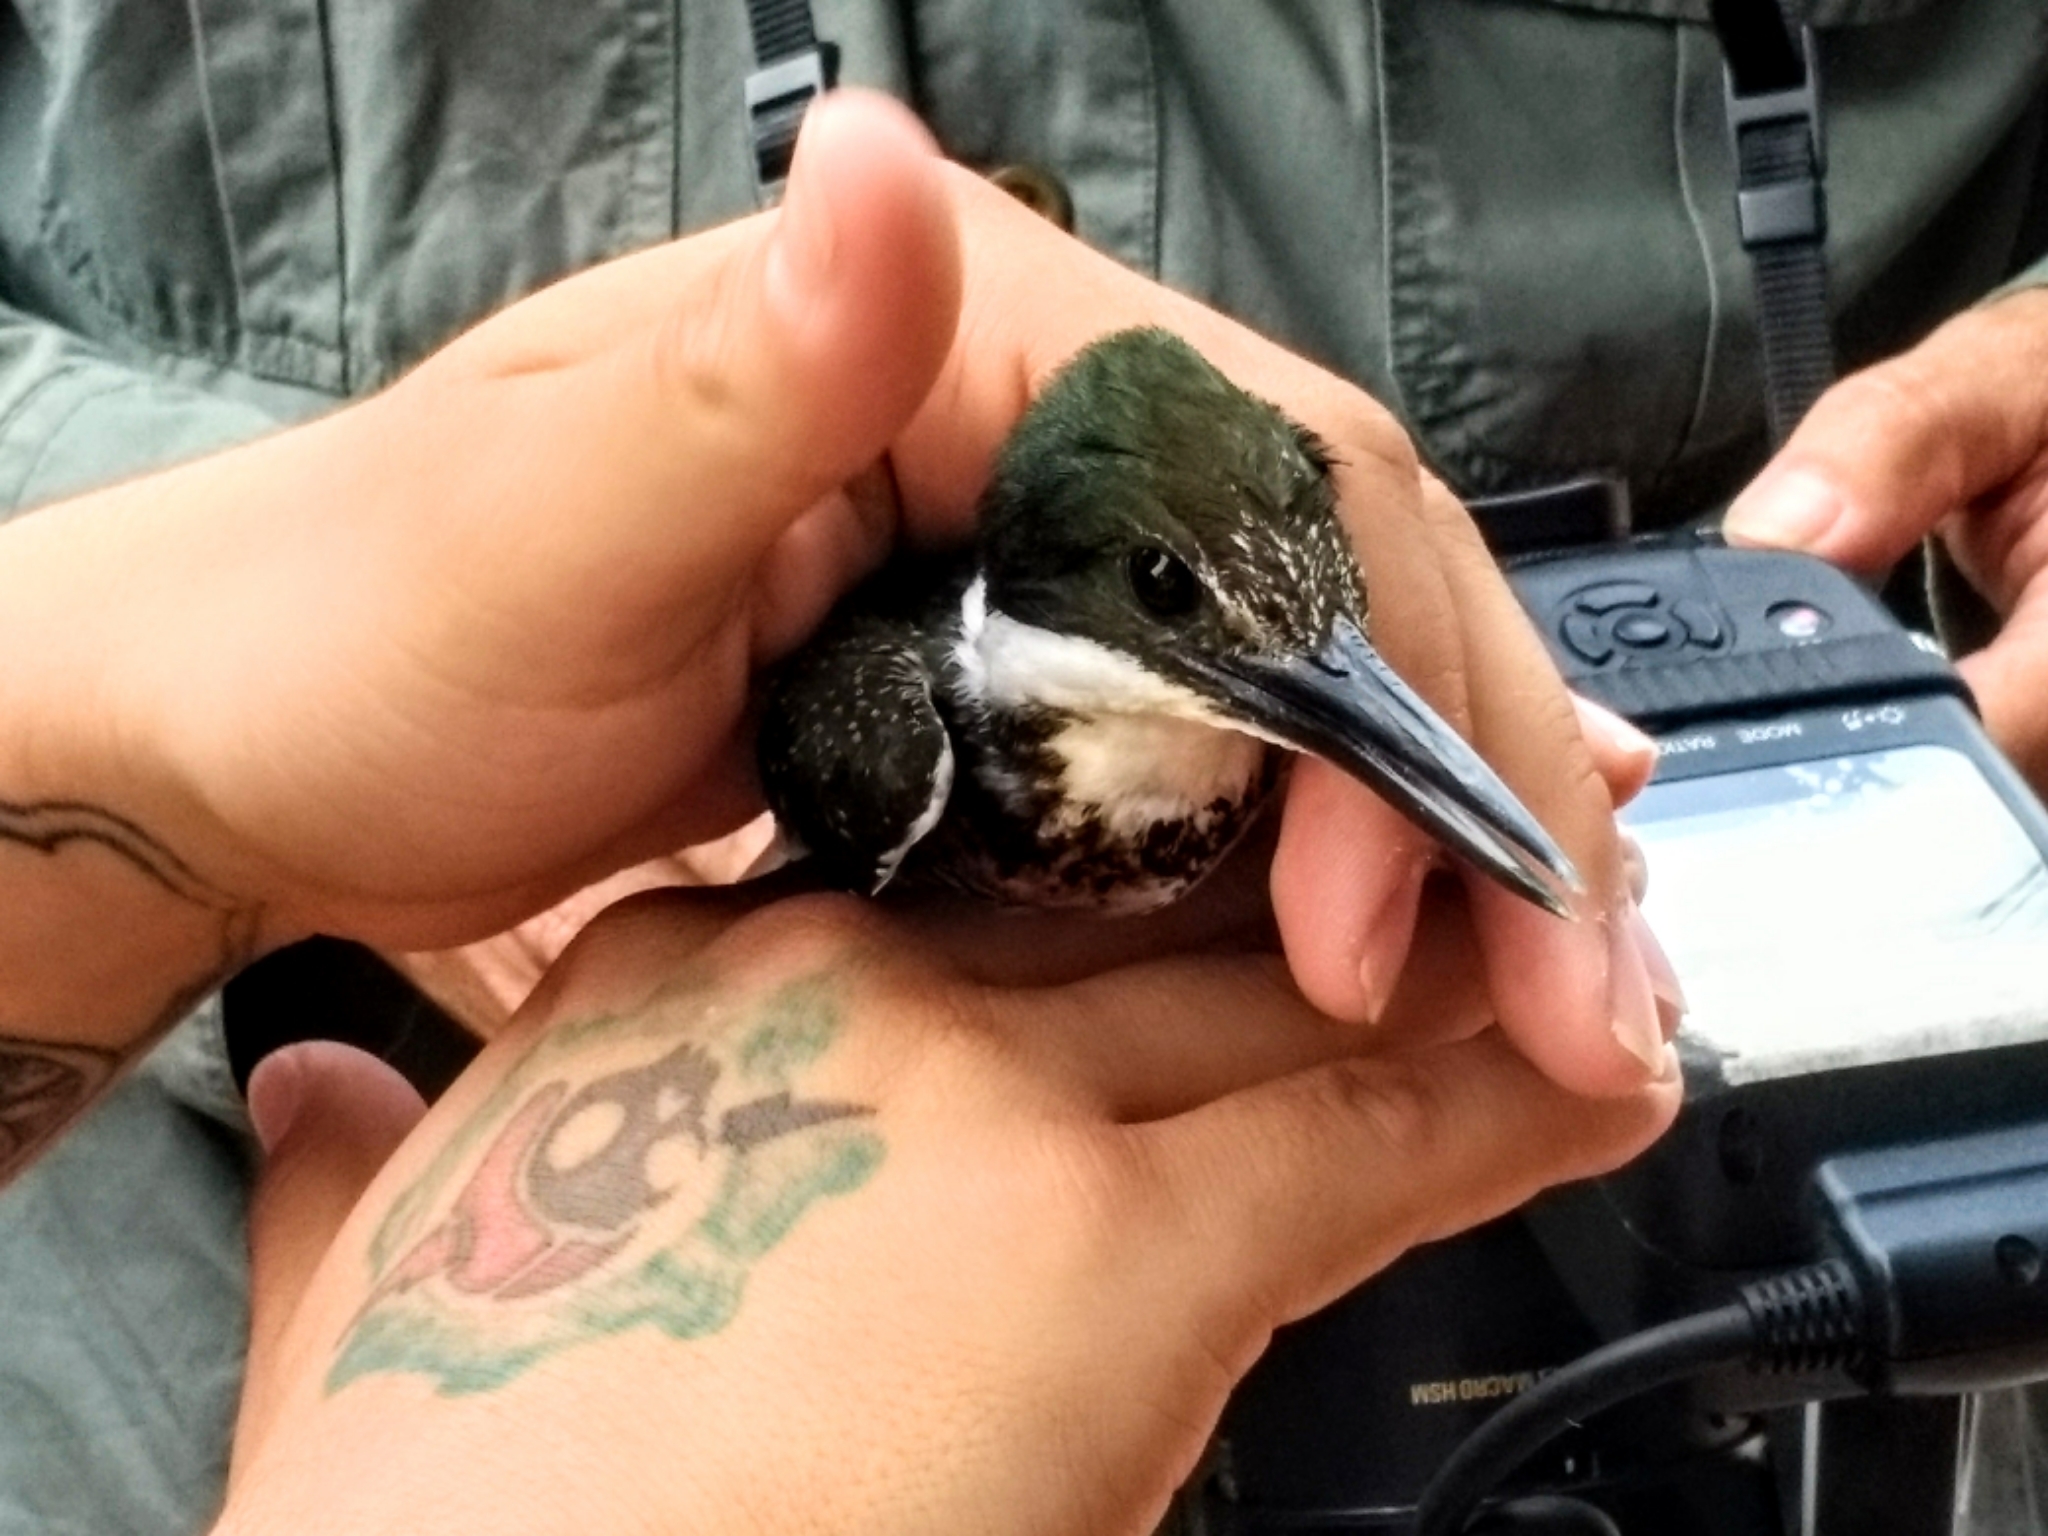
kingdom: Animalia
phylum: Chordata
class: Aves
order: Coraciiformes
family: Alcedinidae
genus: Chloroceryle
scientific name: Chloroceryle americana
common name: Green kingfisher
